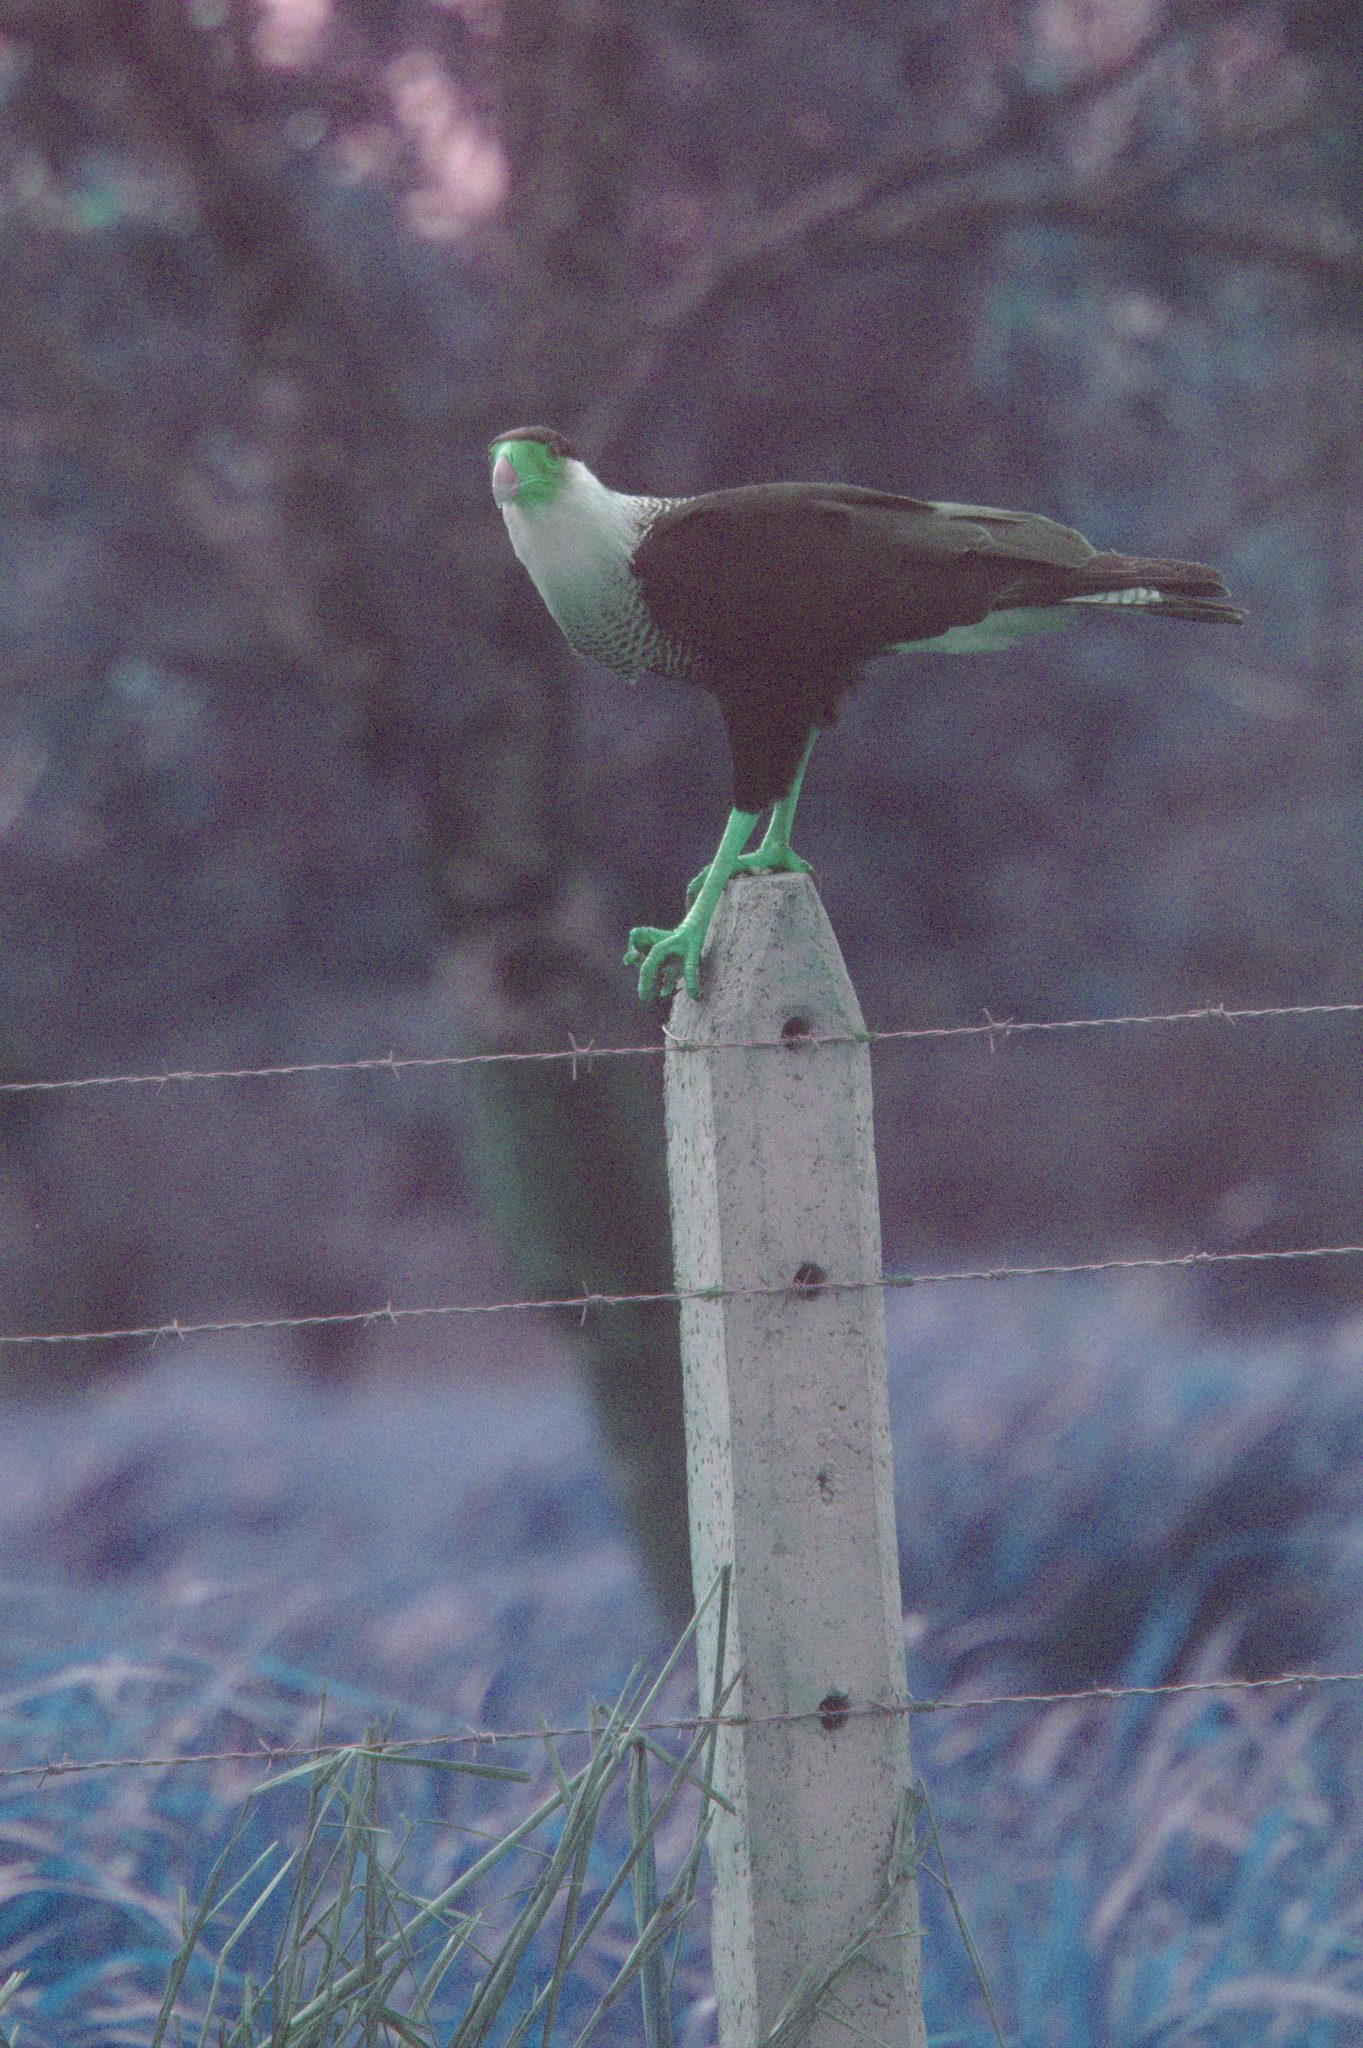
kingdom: Animalia
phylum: Chordata
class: Aves
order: Falconiformes
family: Falconidae
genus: Caracara
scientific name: Caracara plancus
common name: Southern caracara
